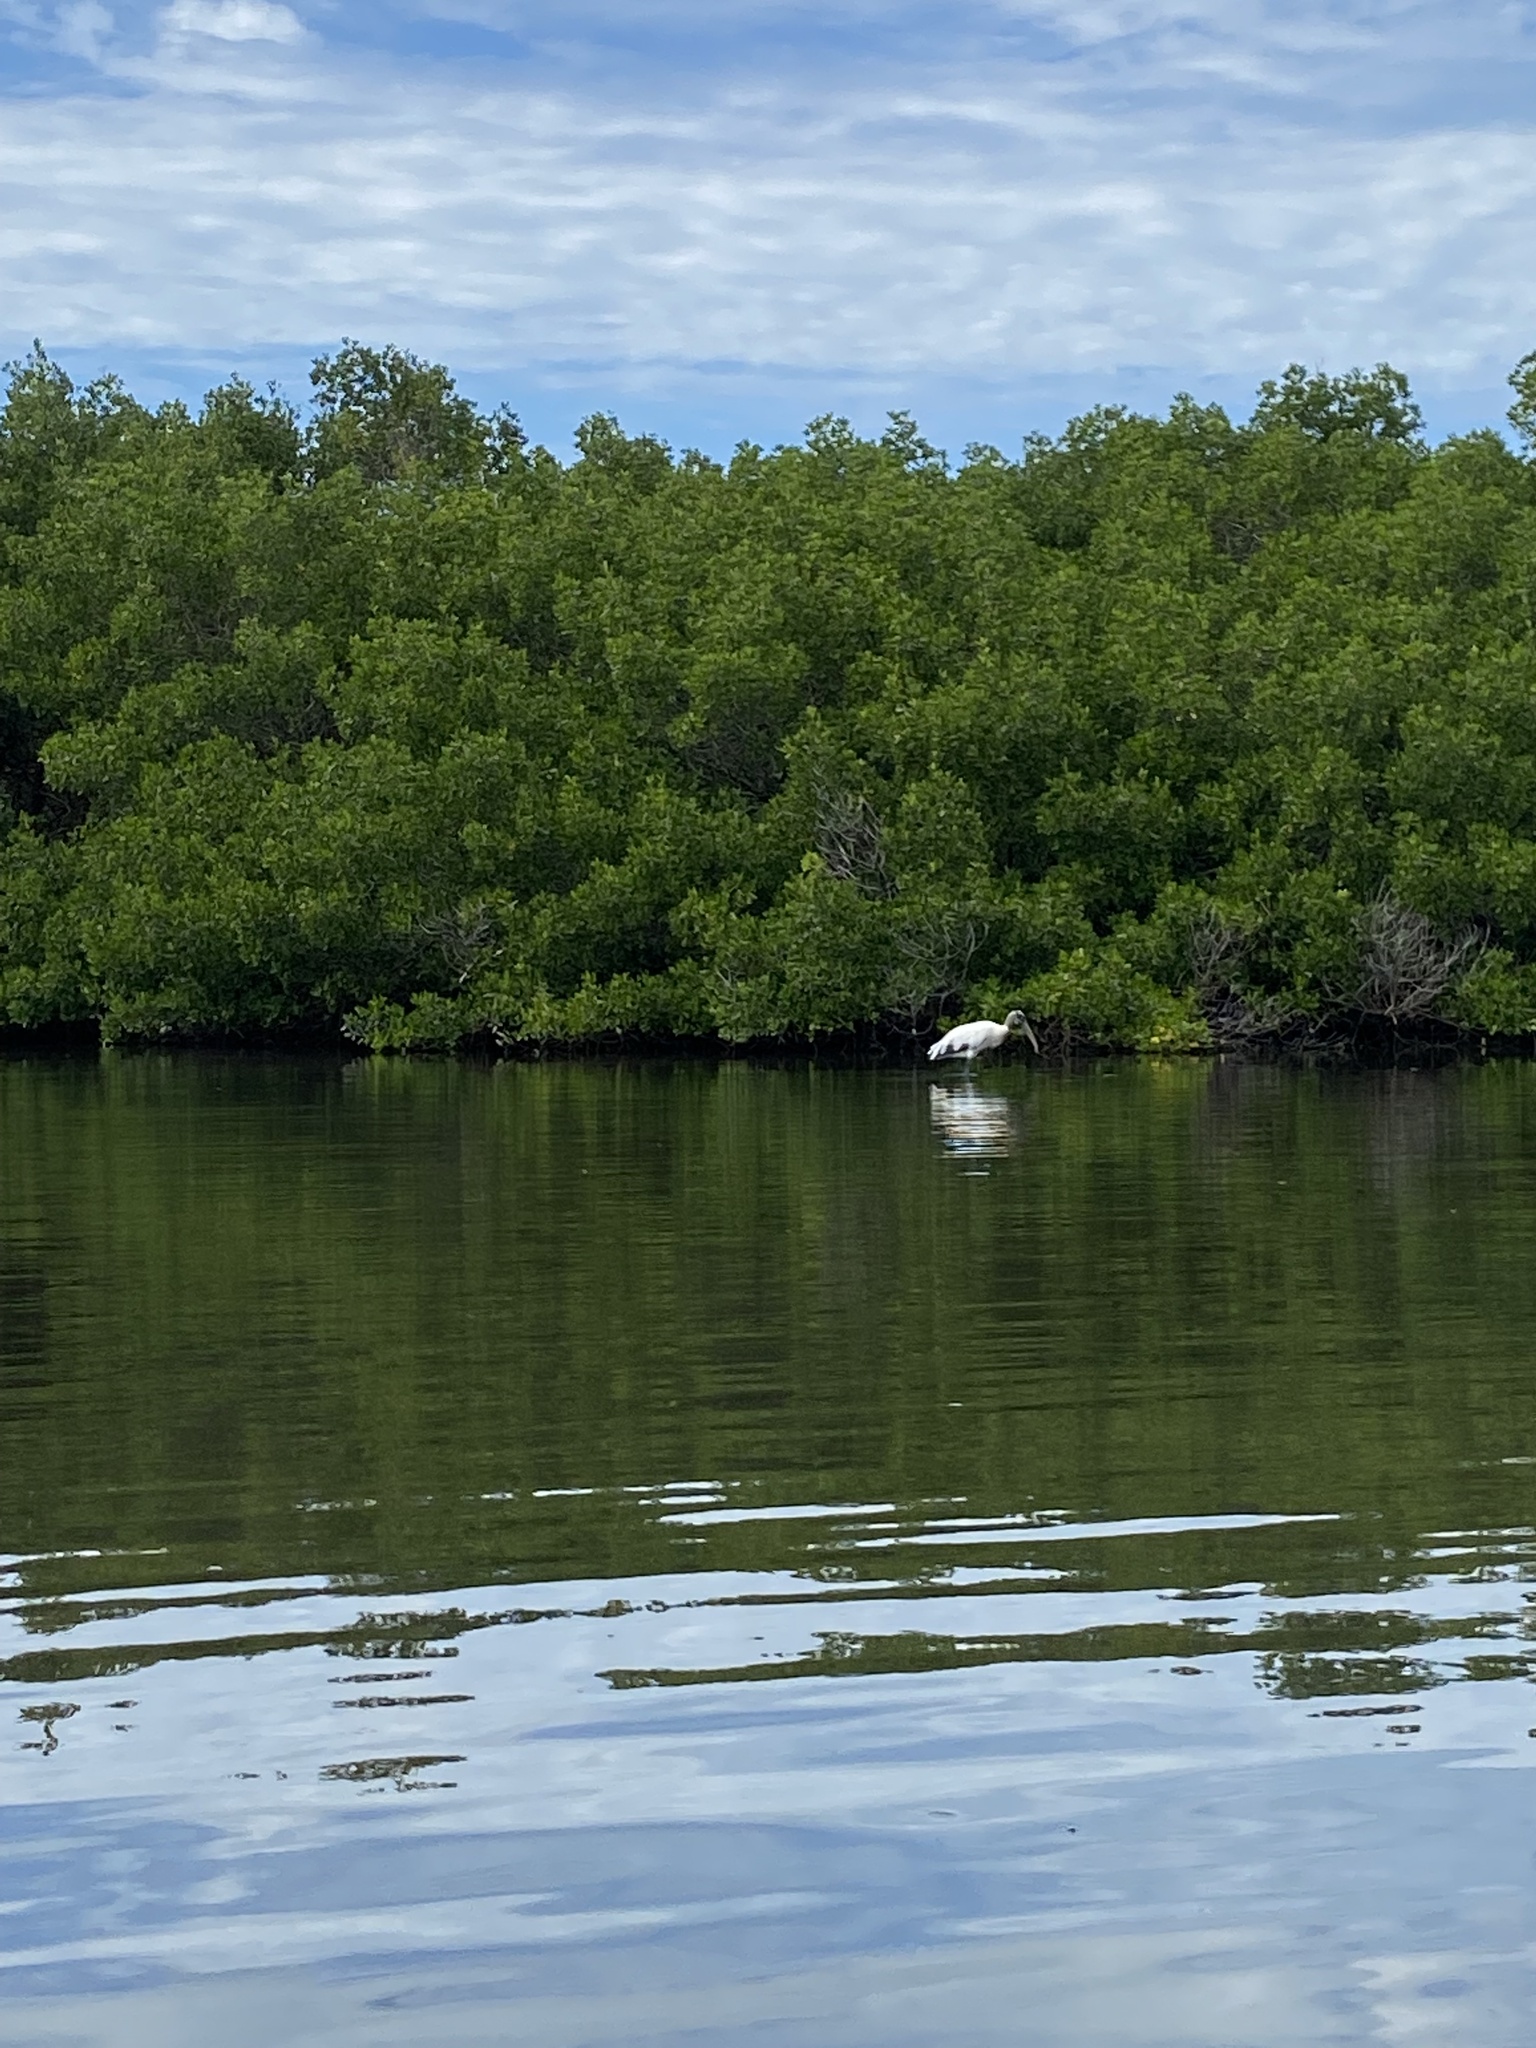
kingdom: Animalia
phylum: Chordata
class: Aves
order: Ciconiiformes
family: Ciconiidae
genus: Mycteria
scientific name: Mycteria americana
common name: Wood stork
